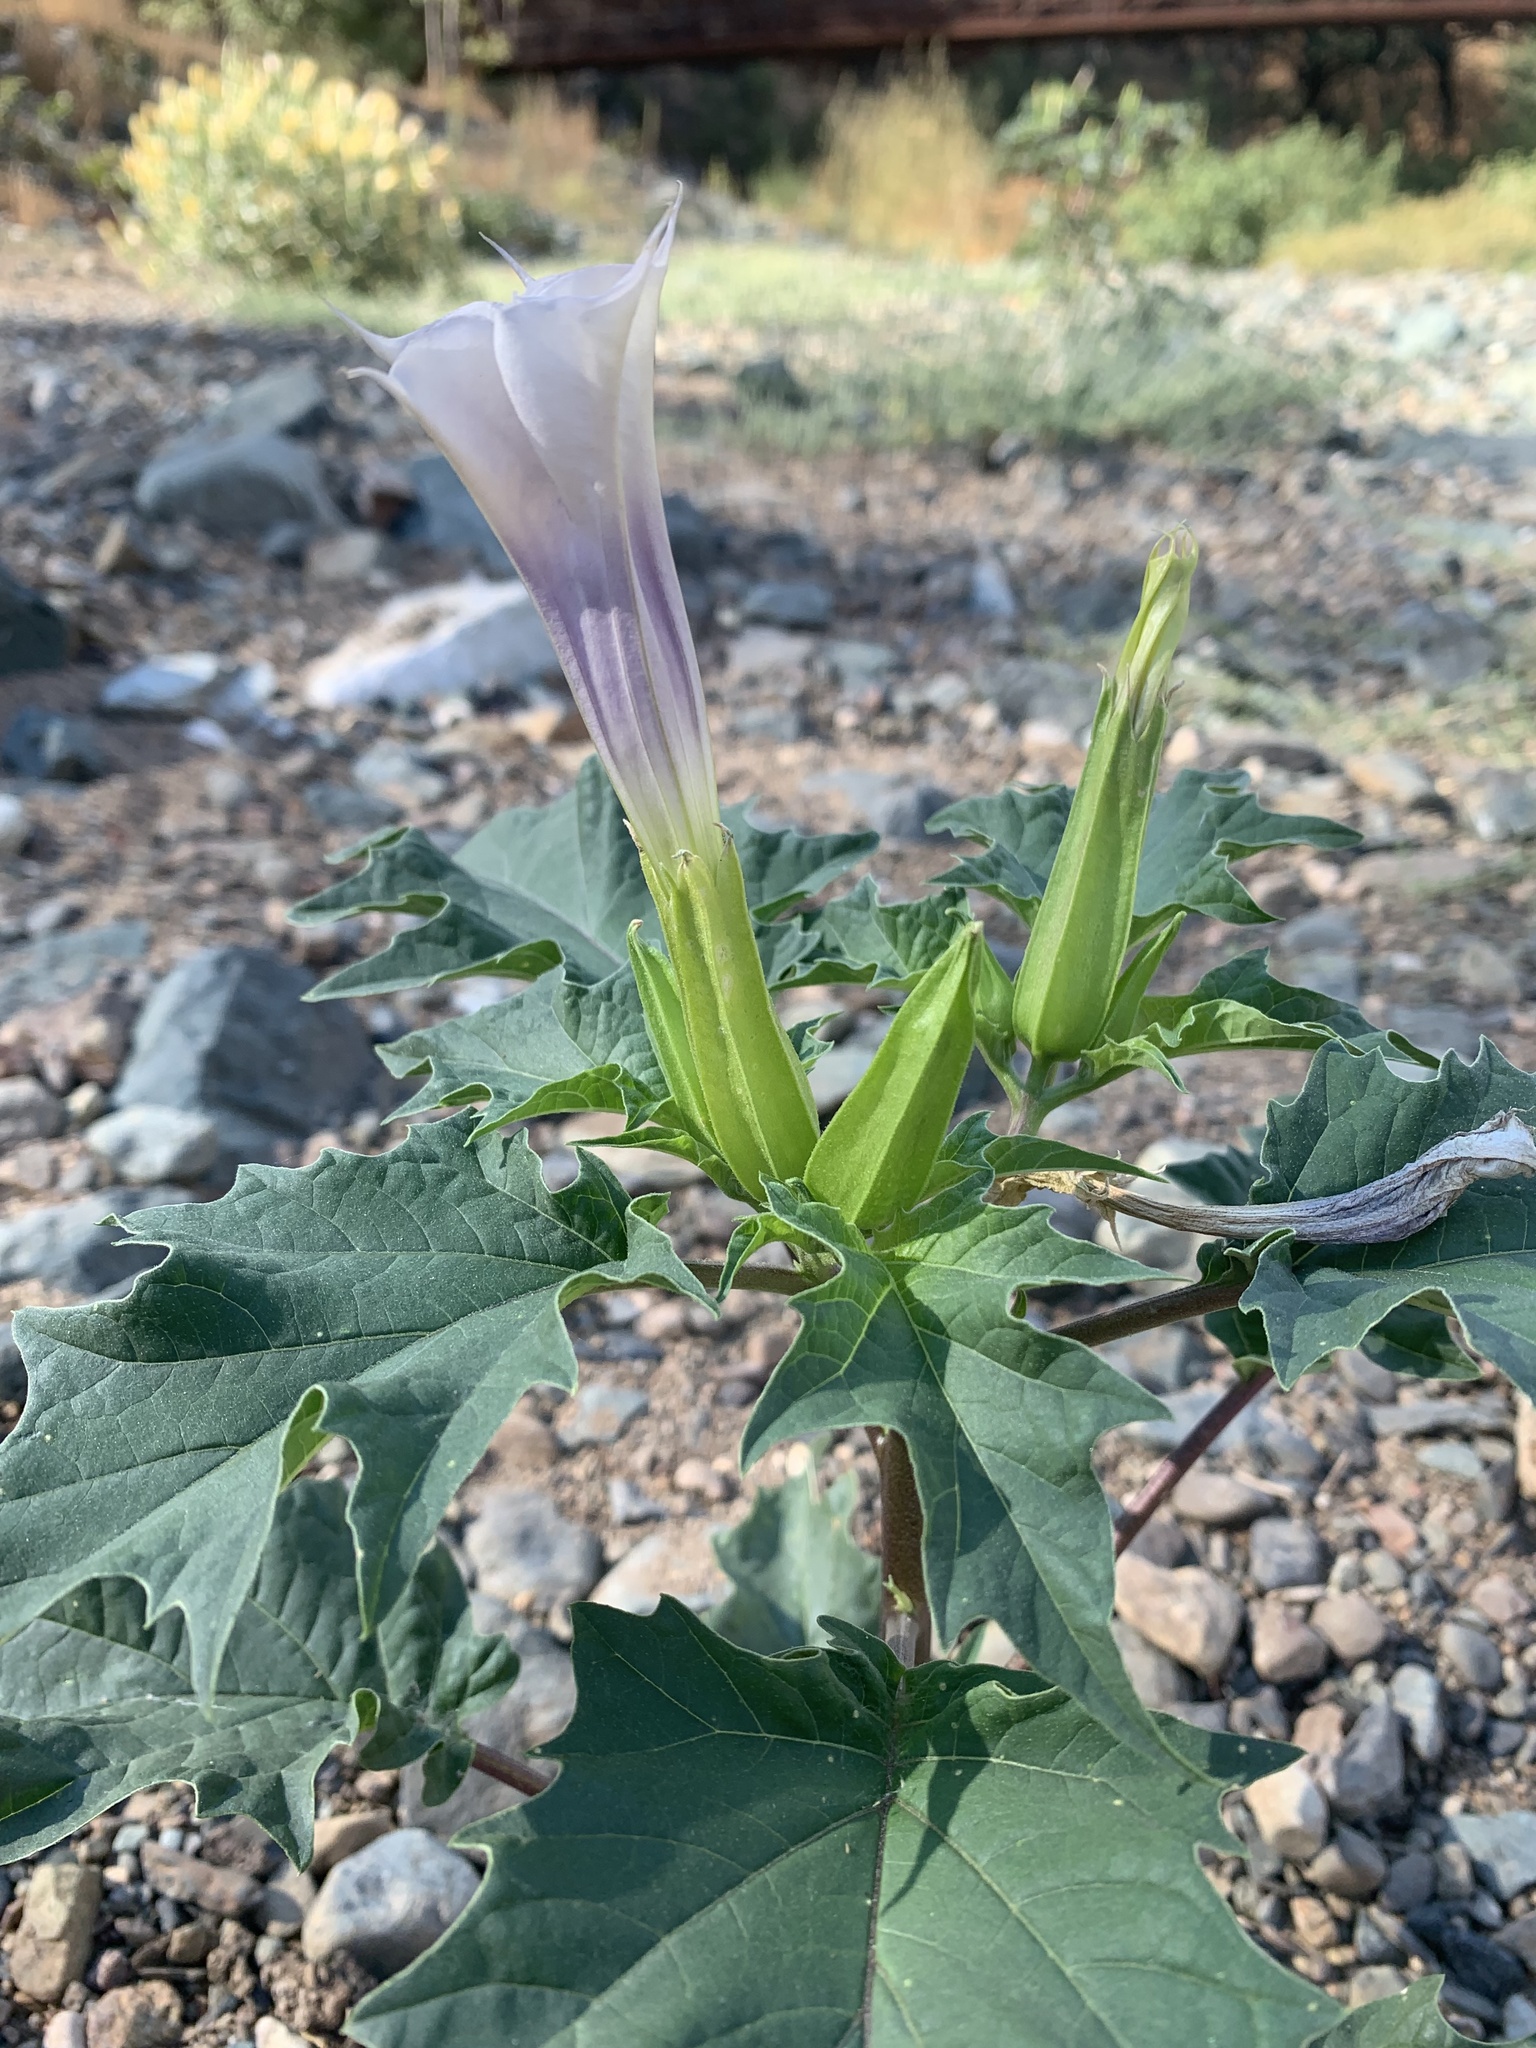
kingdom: Plantae
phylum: Tracheophyta
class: Magnoliopsida
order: Solanales
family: Solanaceae
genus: Datura
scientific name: Datura stramonium
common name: Thorn-apple
